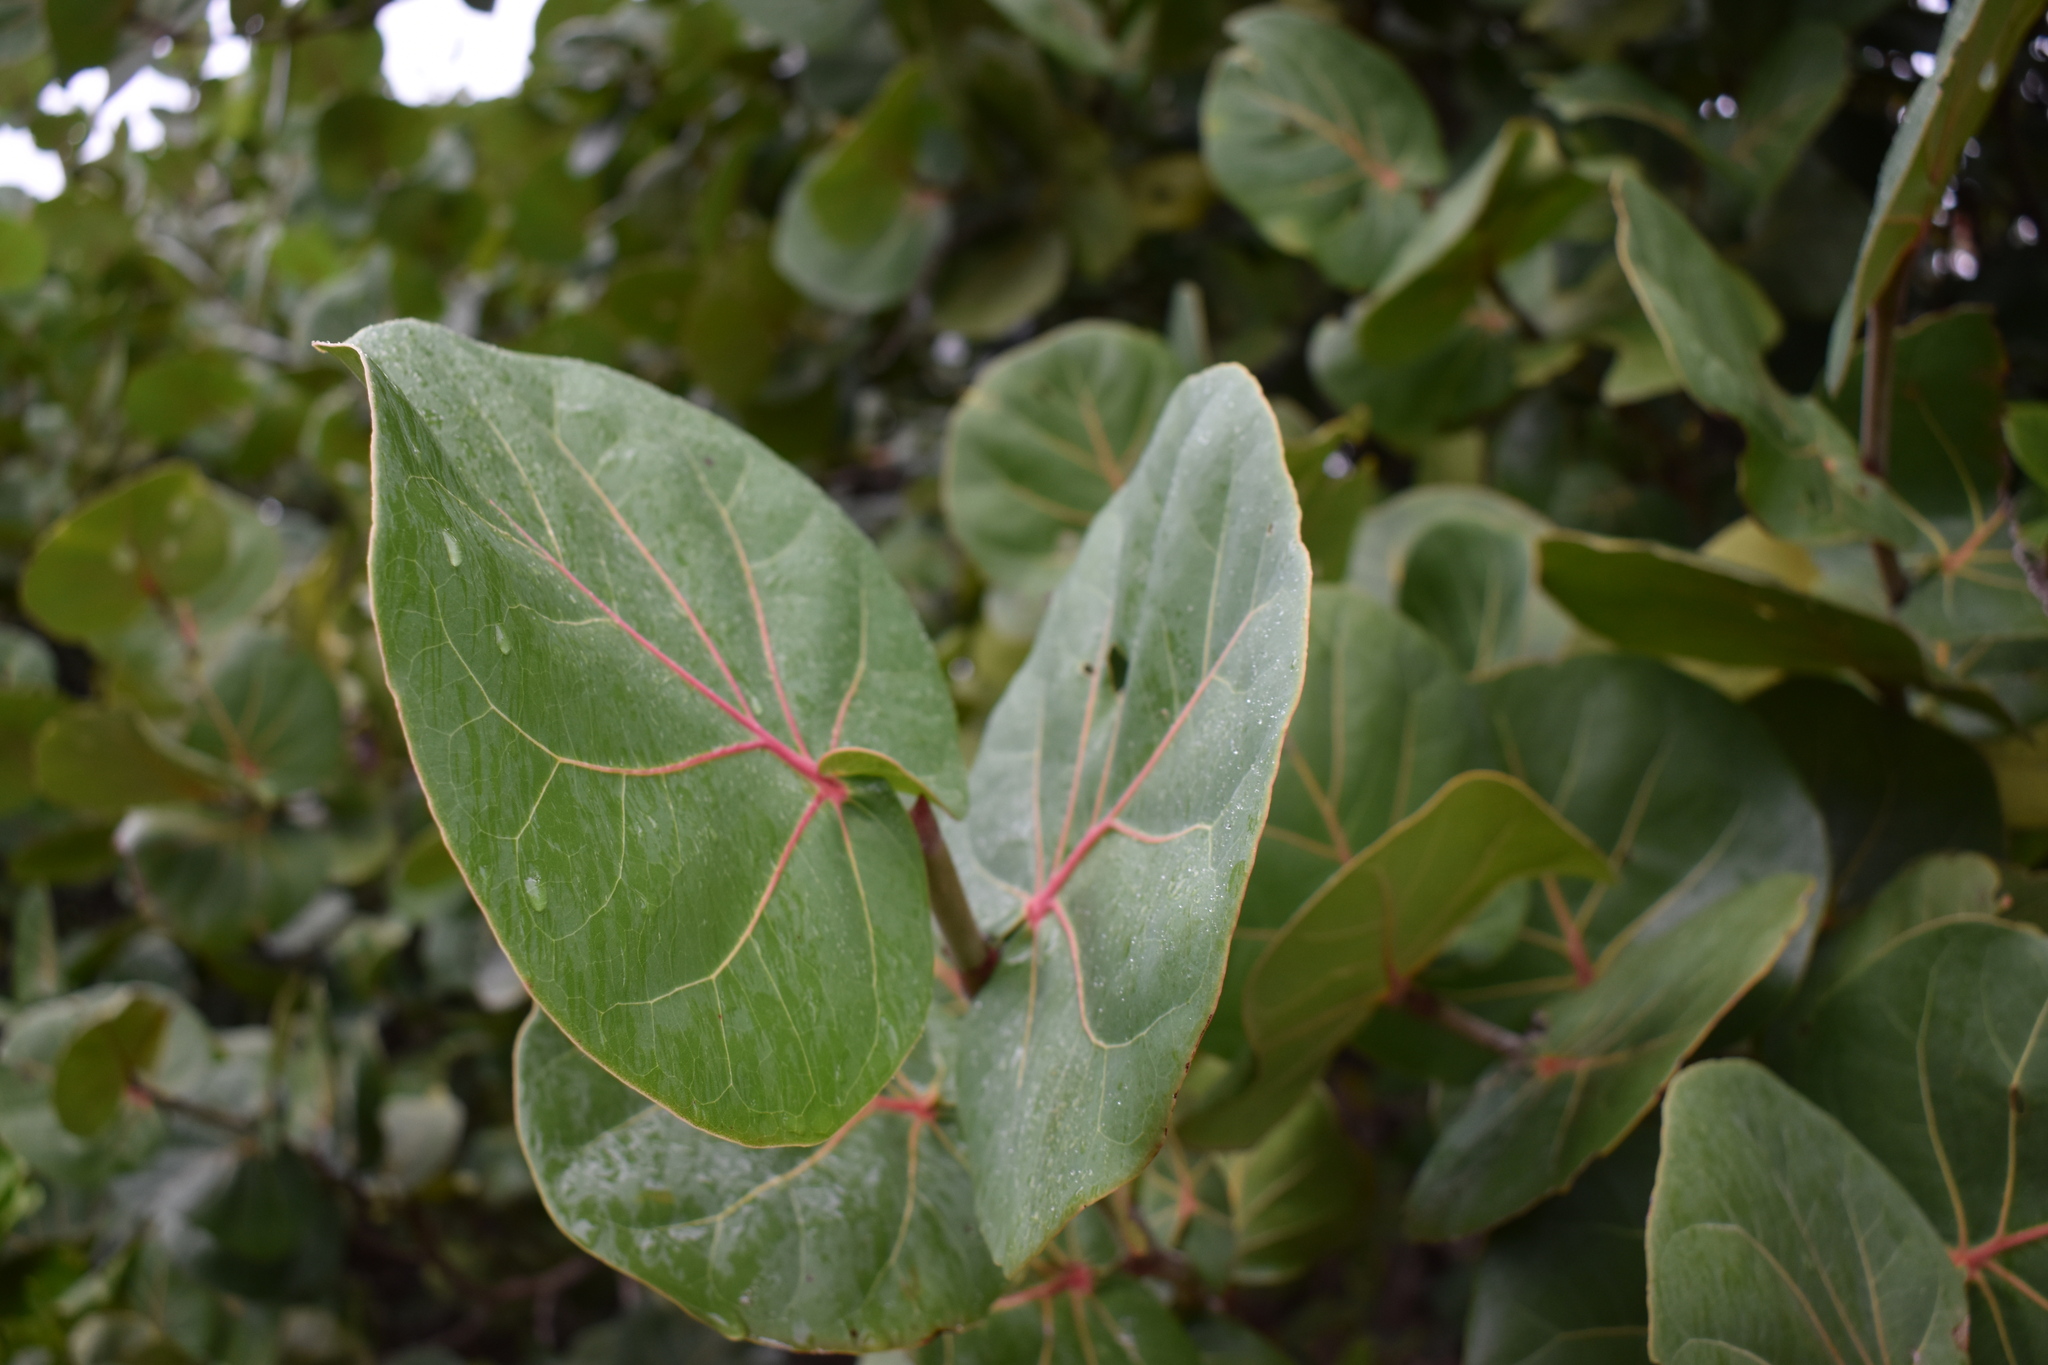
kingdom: Plantae
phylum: Tracheophyta
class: Magnoliopsida
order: Caryophyllales
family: Polygonaceae
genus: Coccoloba
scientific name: Coccoloba uvifera
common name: Seagrape
